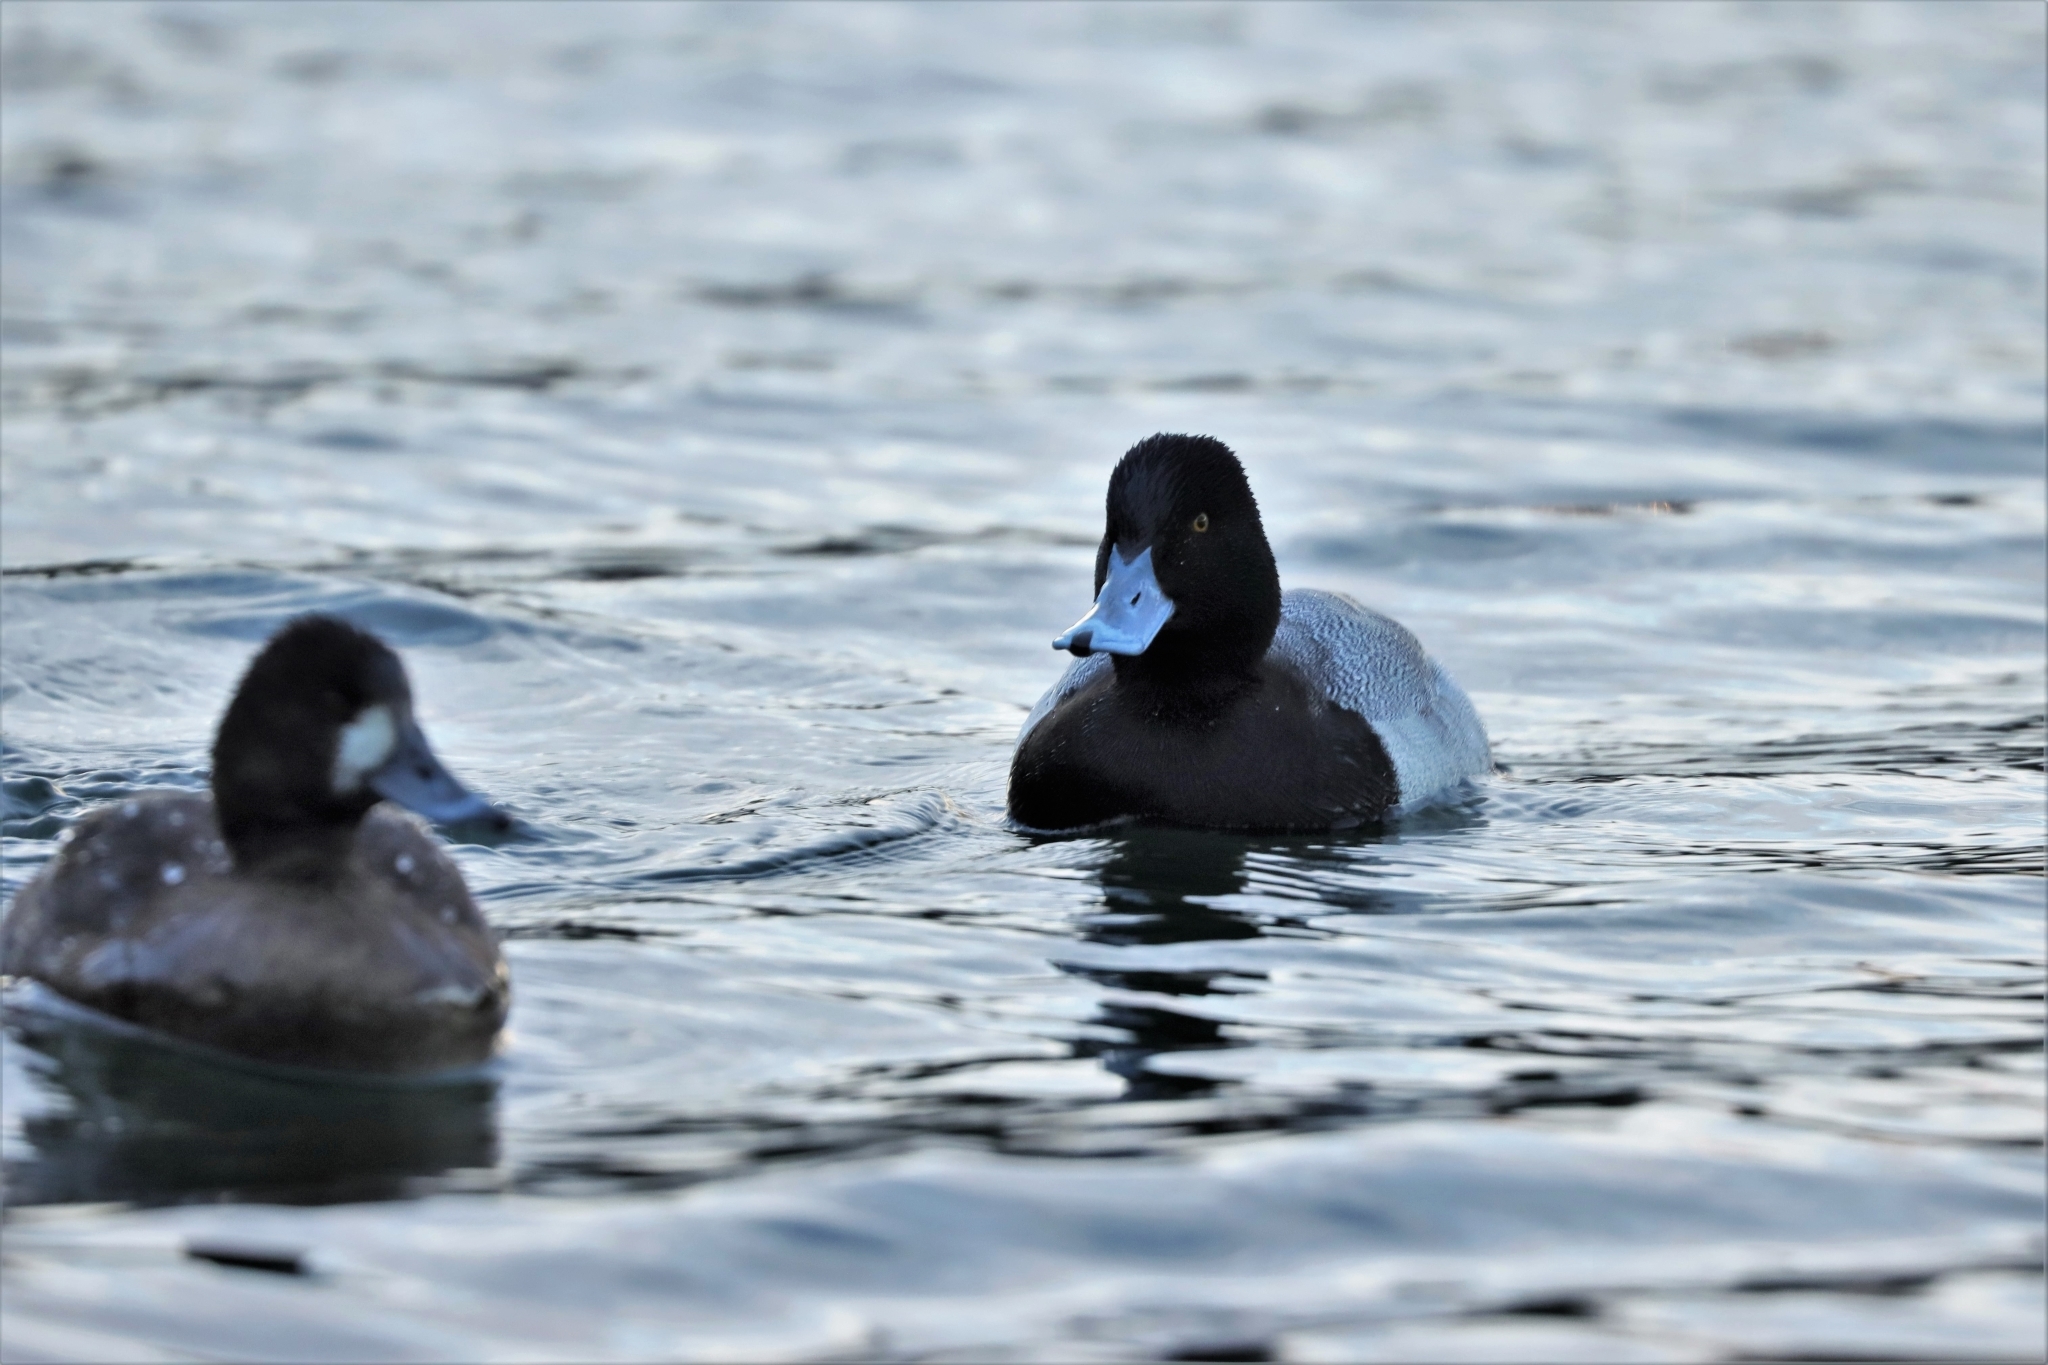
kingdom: Animalia
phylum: Chordata
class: Aves
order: Anseriformes
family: Anatidae
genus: Aythya
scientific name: Aythya affinis
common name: Lesser scaup
